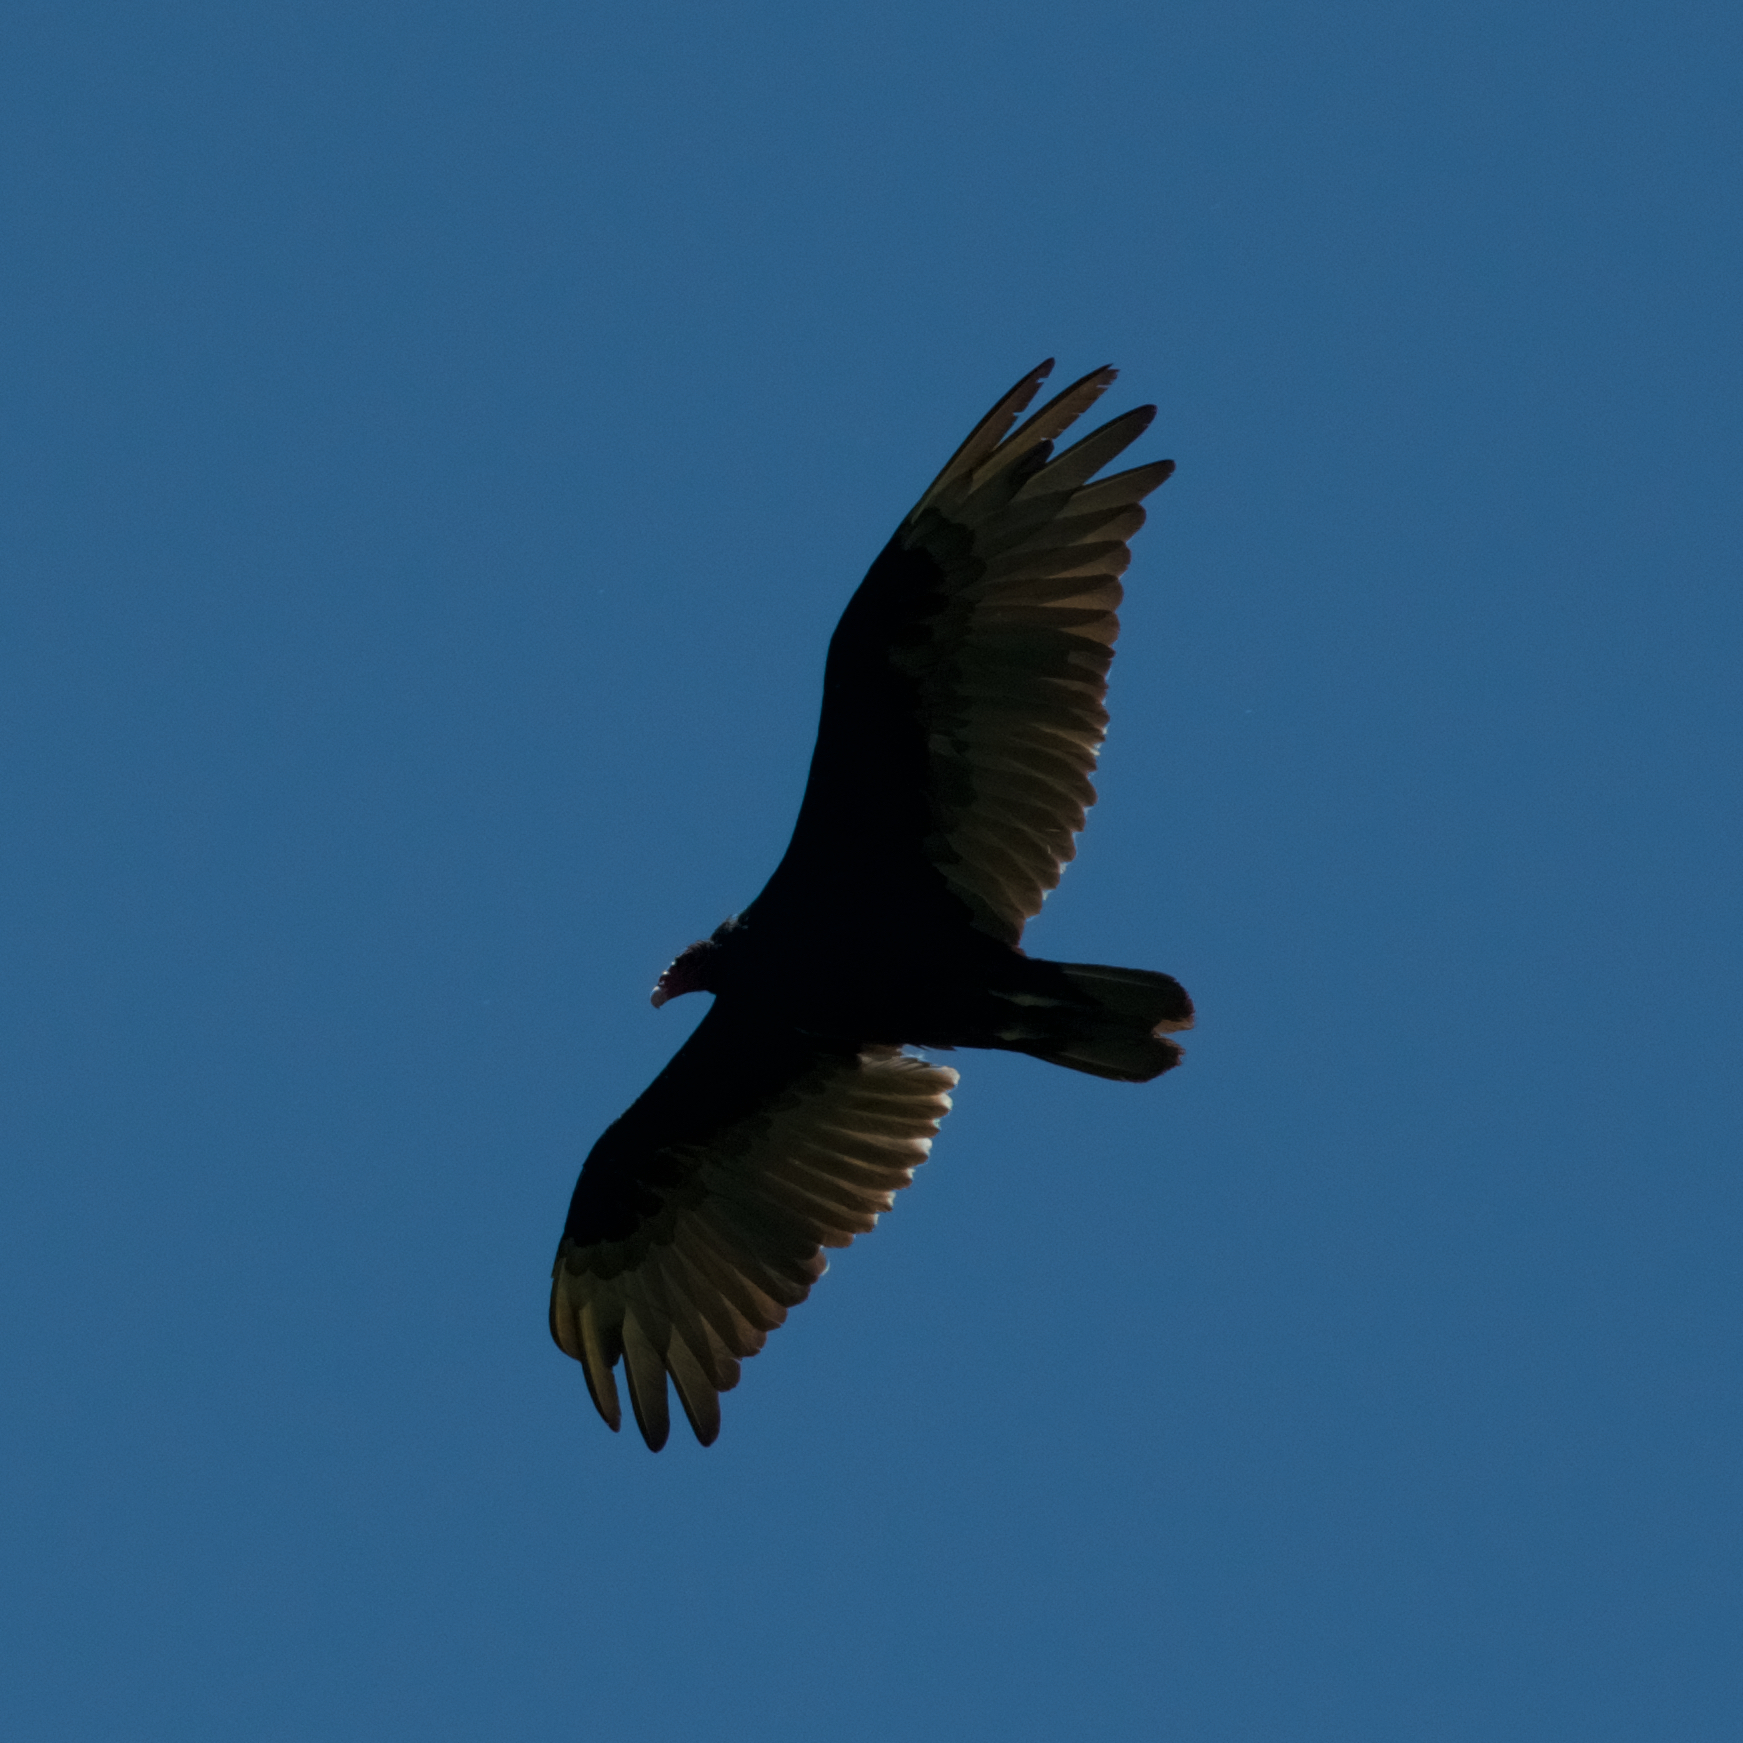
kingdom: Animalia
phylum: Chordata
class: Aves
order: Accipitriformes
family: Cathartidae
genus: Cathartes
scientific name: Cathartes aura
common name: Turkey vulture
